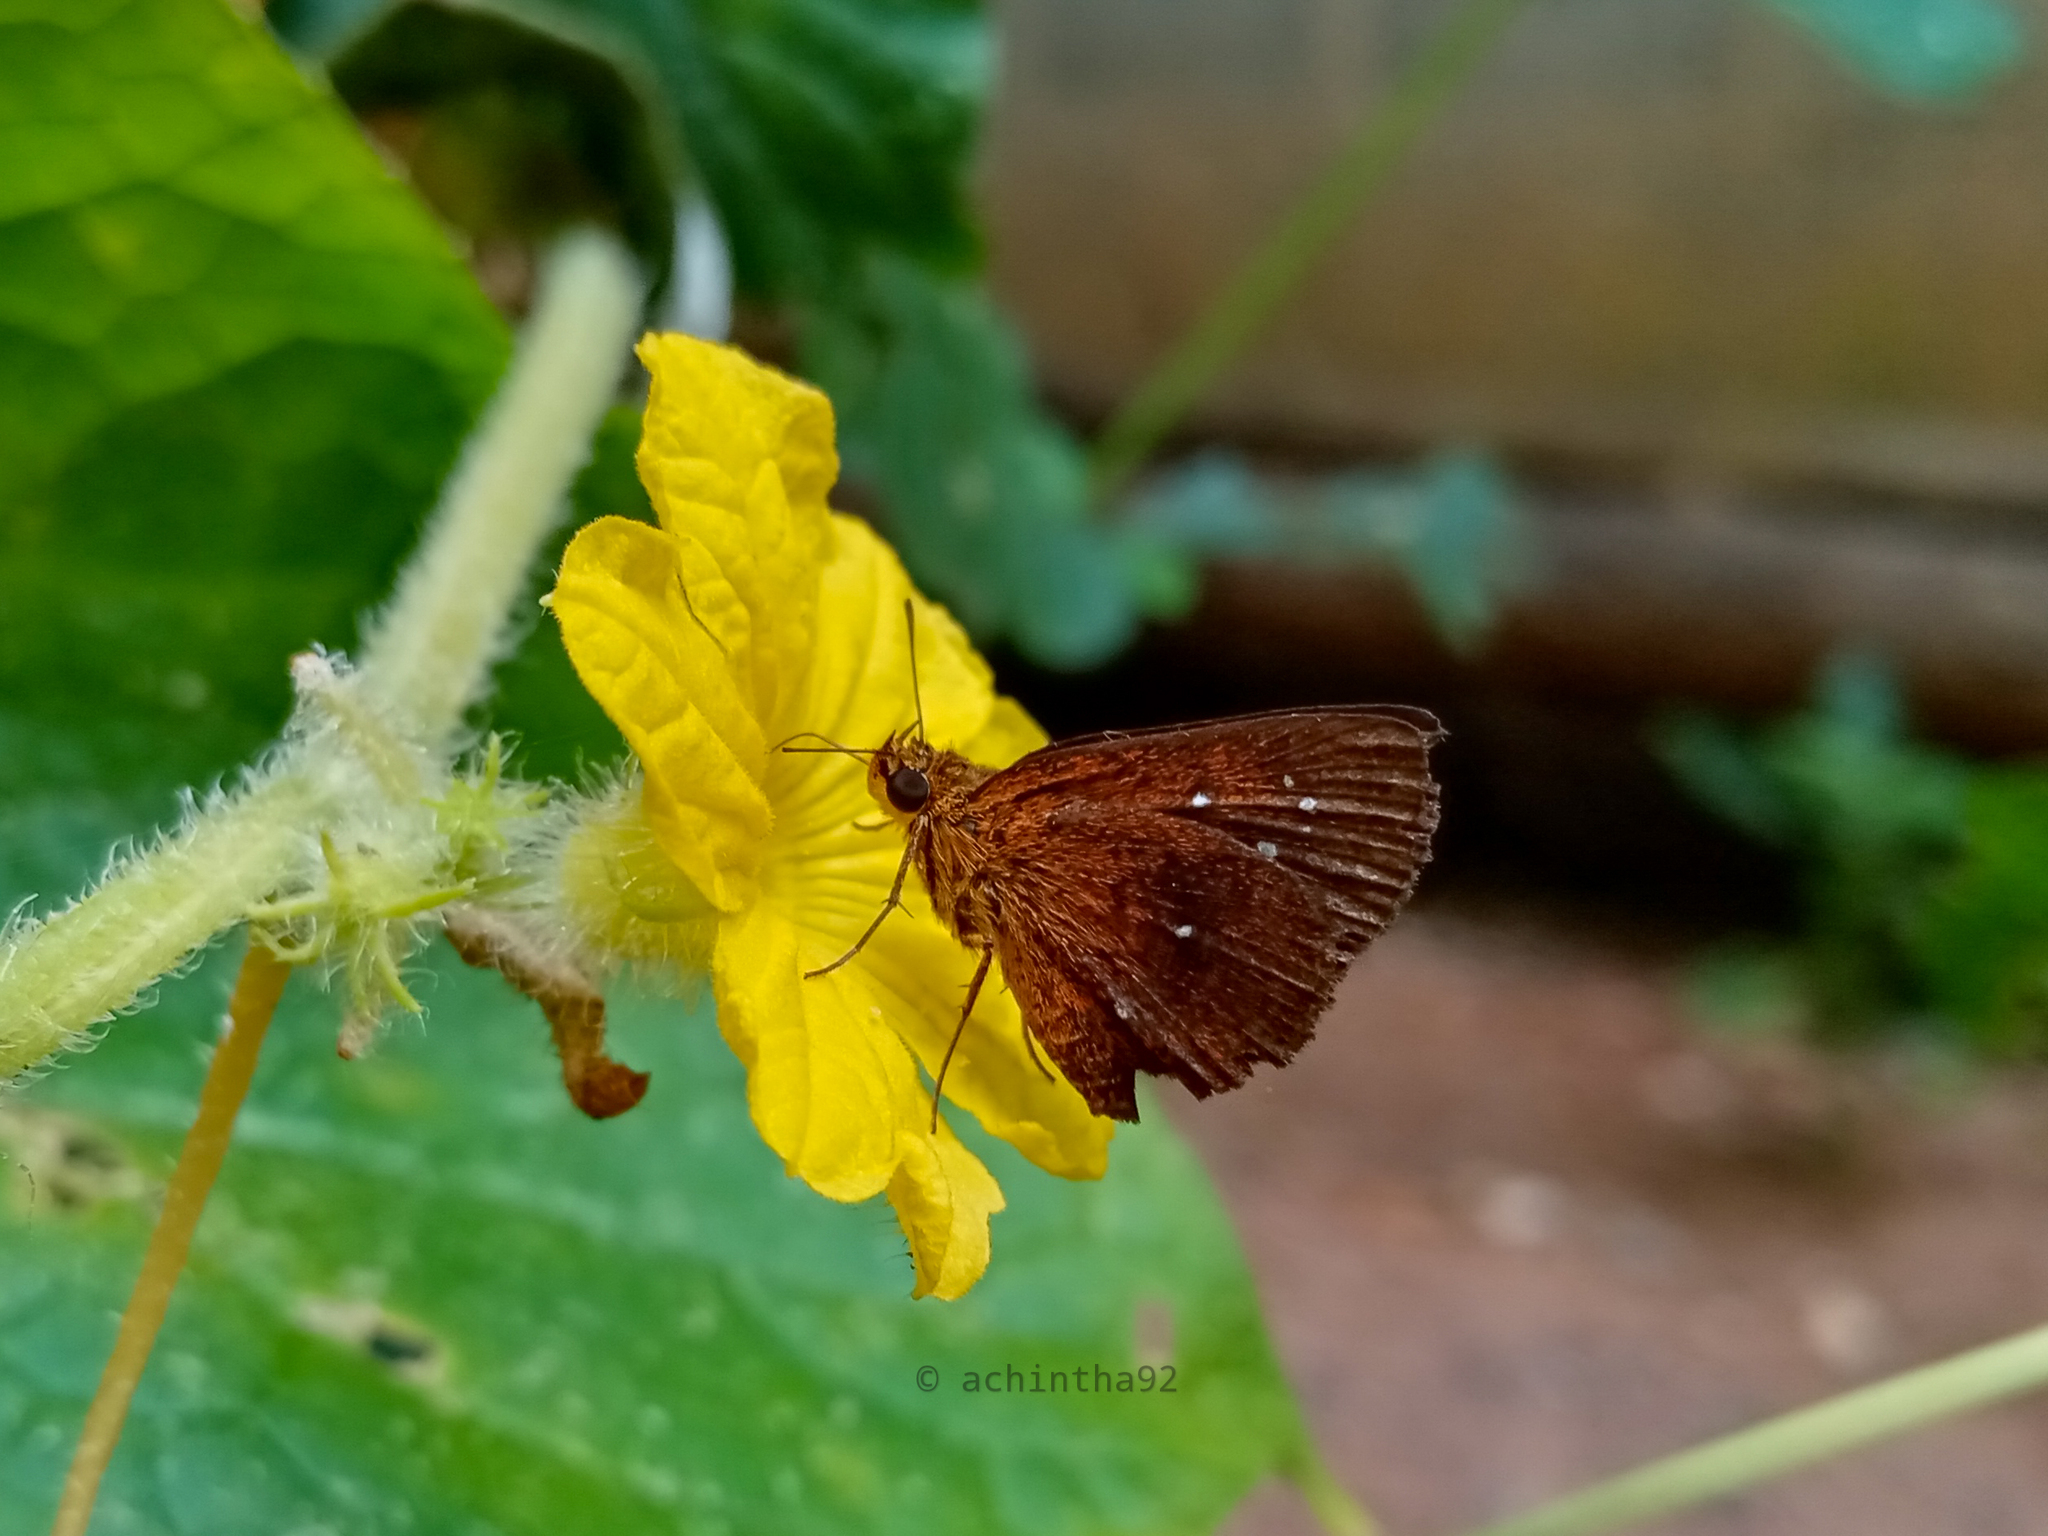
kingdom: Animalia
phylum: Arthropoda
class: Insecta
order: Lepidoptera
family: Hesperiidae
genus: Iambrix
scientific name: Iambrix salsala
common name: Chestnut bob
